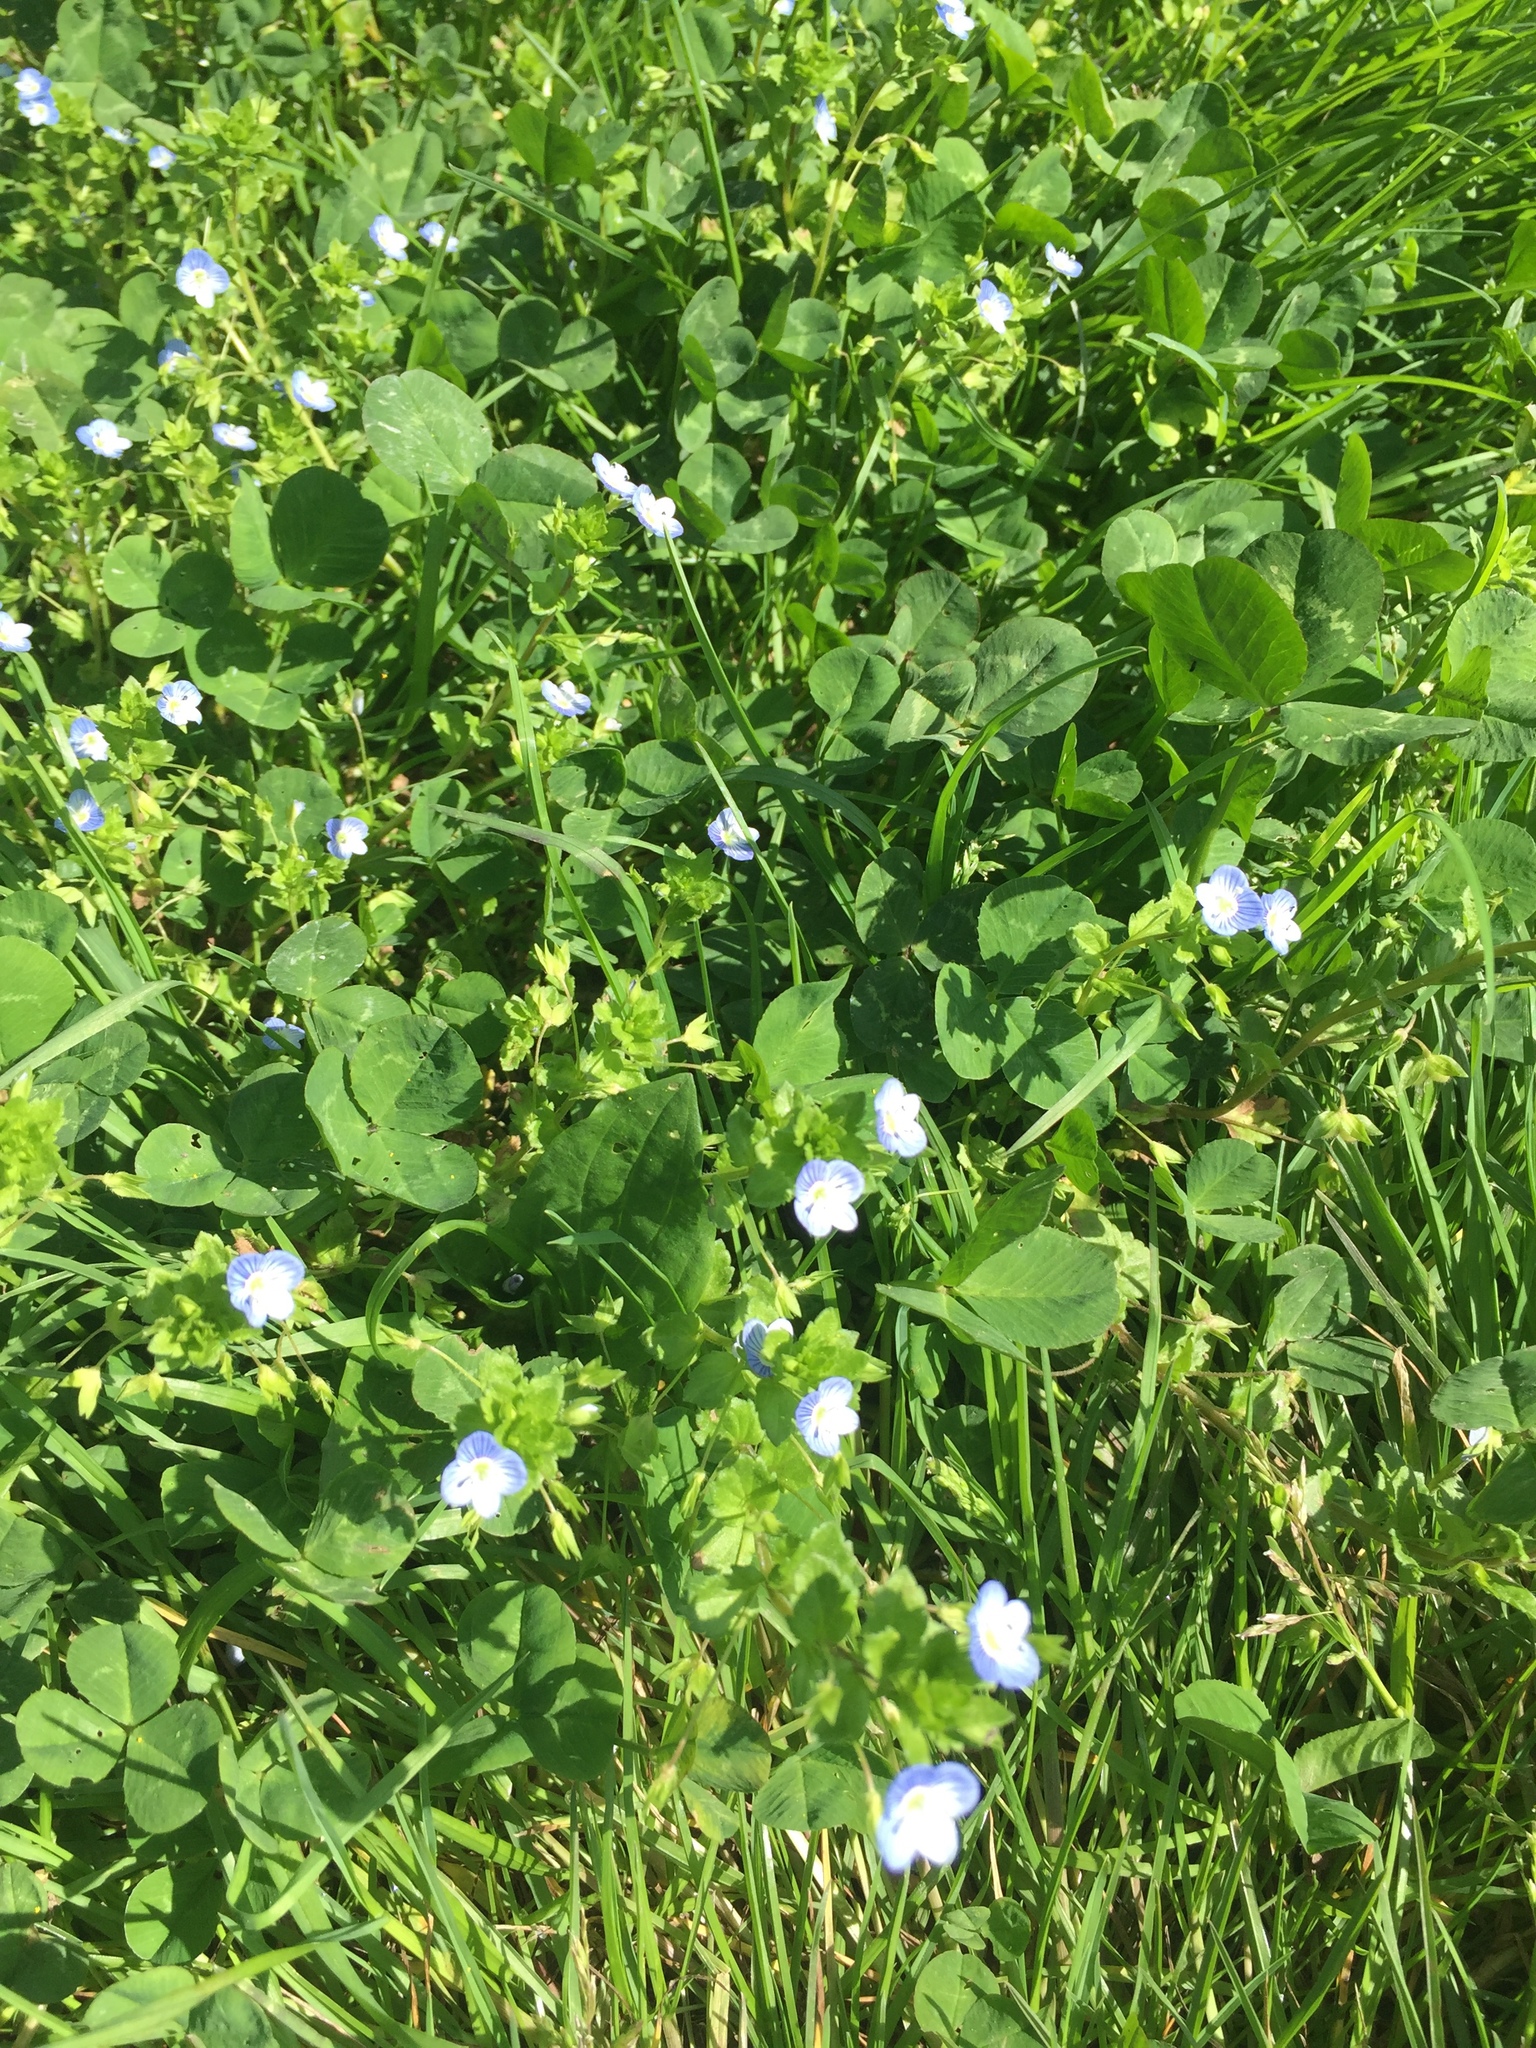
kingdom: Plantae
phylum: Tracheophyta
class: Magnoliopsida
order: Lamiales
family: Plantaginaceae
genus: Veronica
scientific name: Veronica persica
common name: Common field-speedwell
